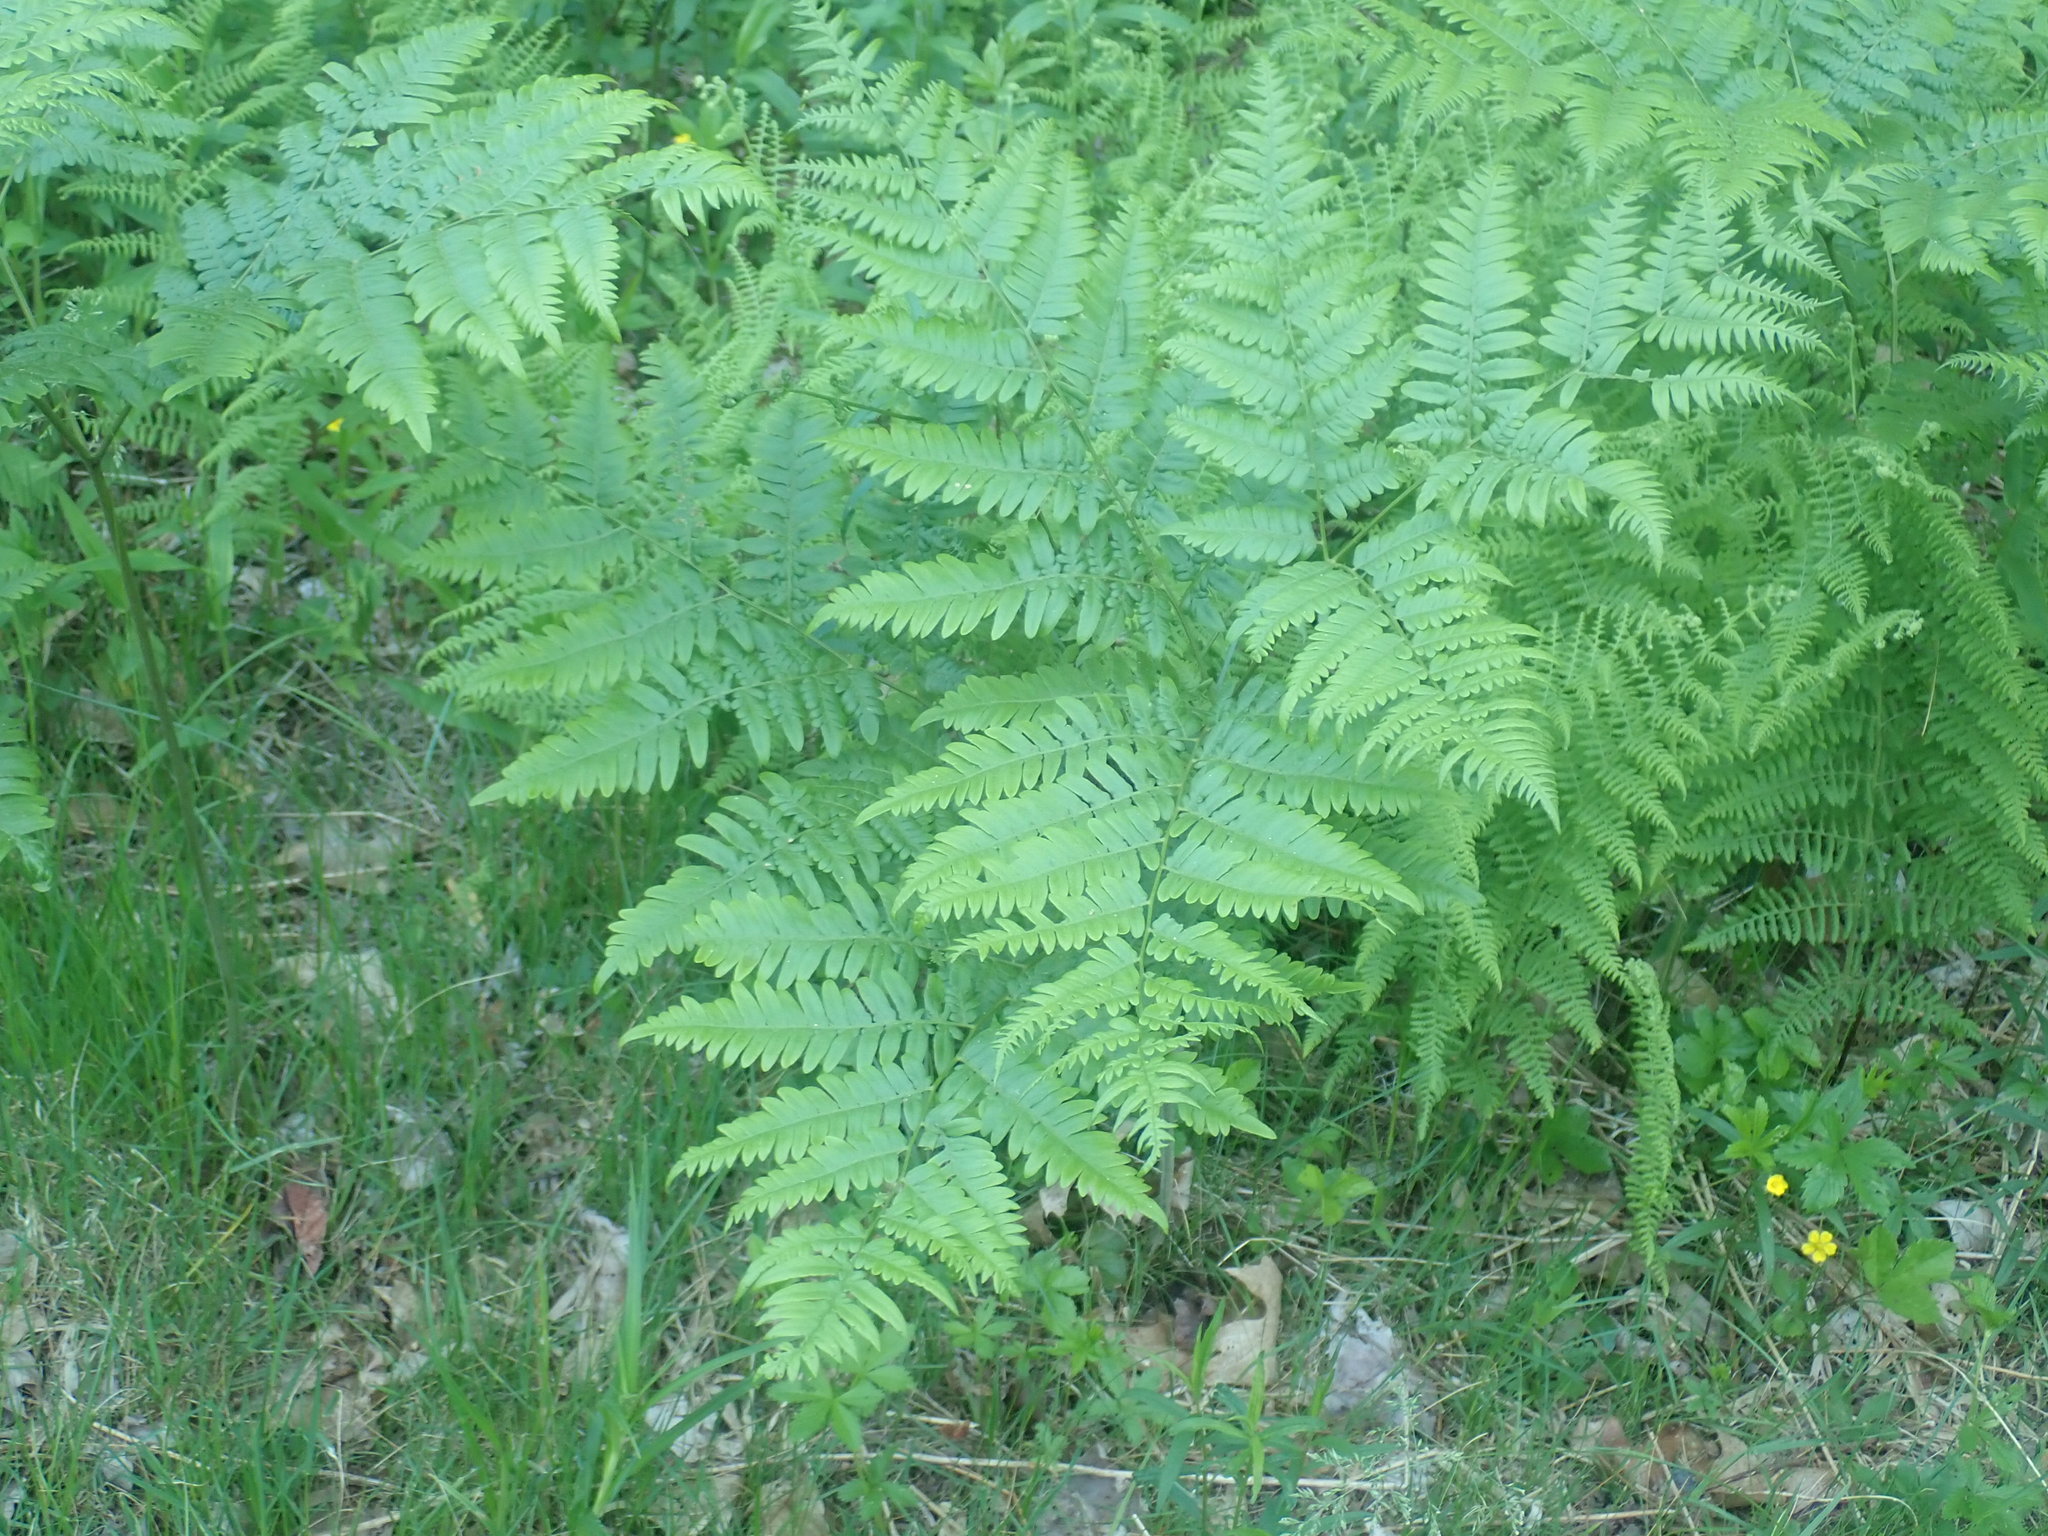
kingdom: Plantae
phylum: Tracheophyta
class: Polypodiopsida
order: Polypodiales
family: Dennstaedtiaceae
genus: Pteridium
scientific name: Pteridium aquilinum
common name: Bracken
